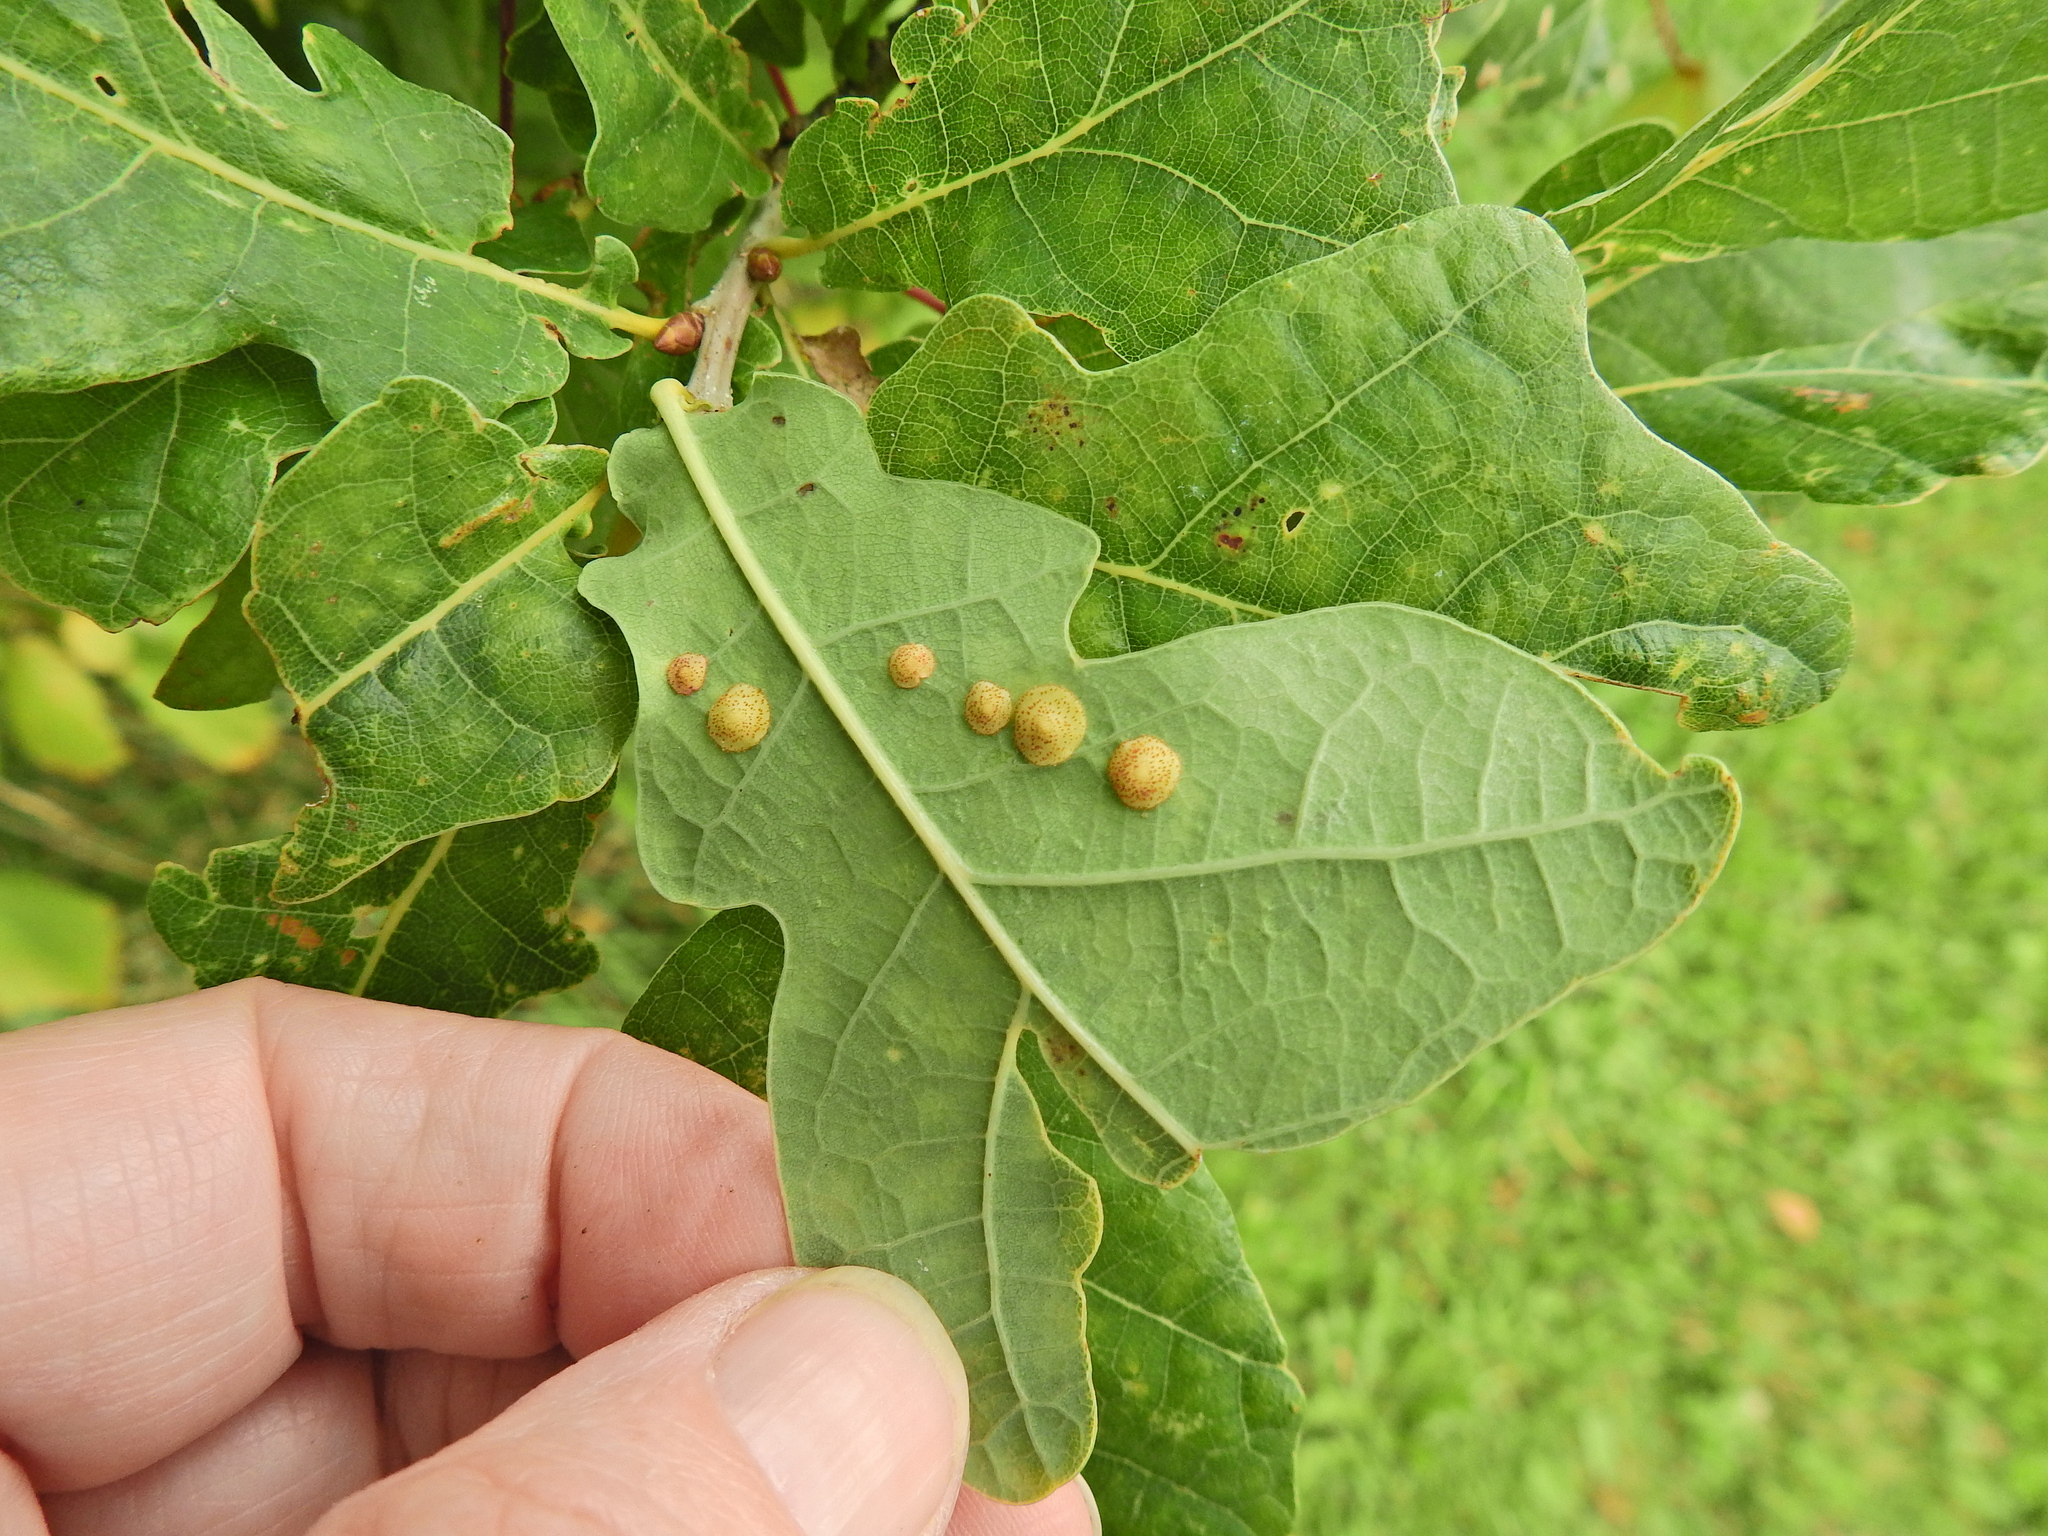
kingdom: Animalia
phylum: Arthropoda
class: Insecta
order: Hymenoptera
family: Cynipidae
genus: Neuroterus
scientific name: Neuroterus quercusbaccarum
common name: Common spangle gall
